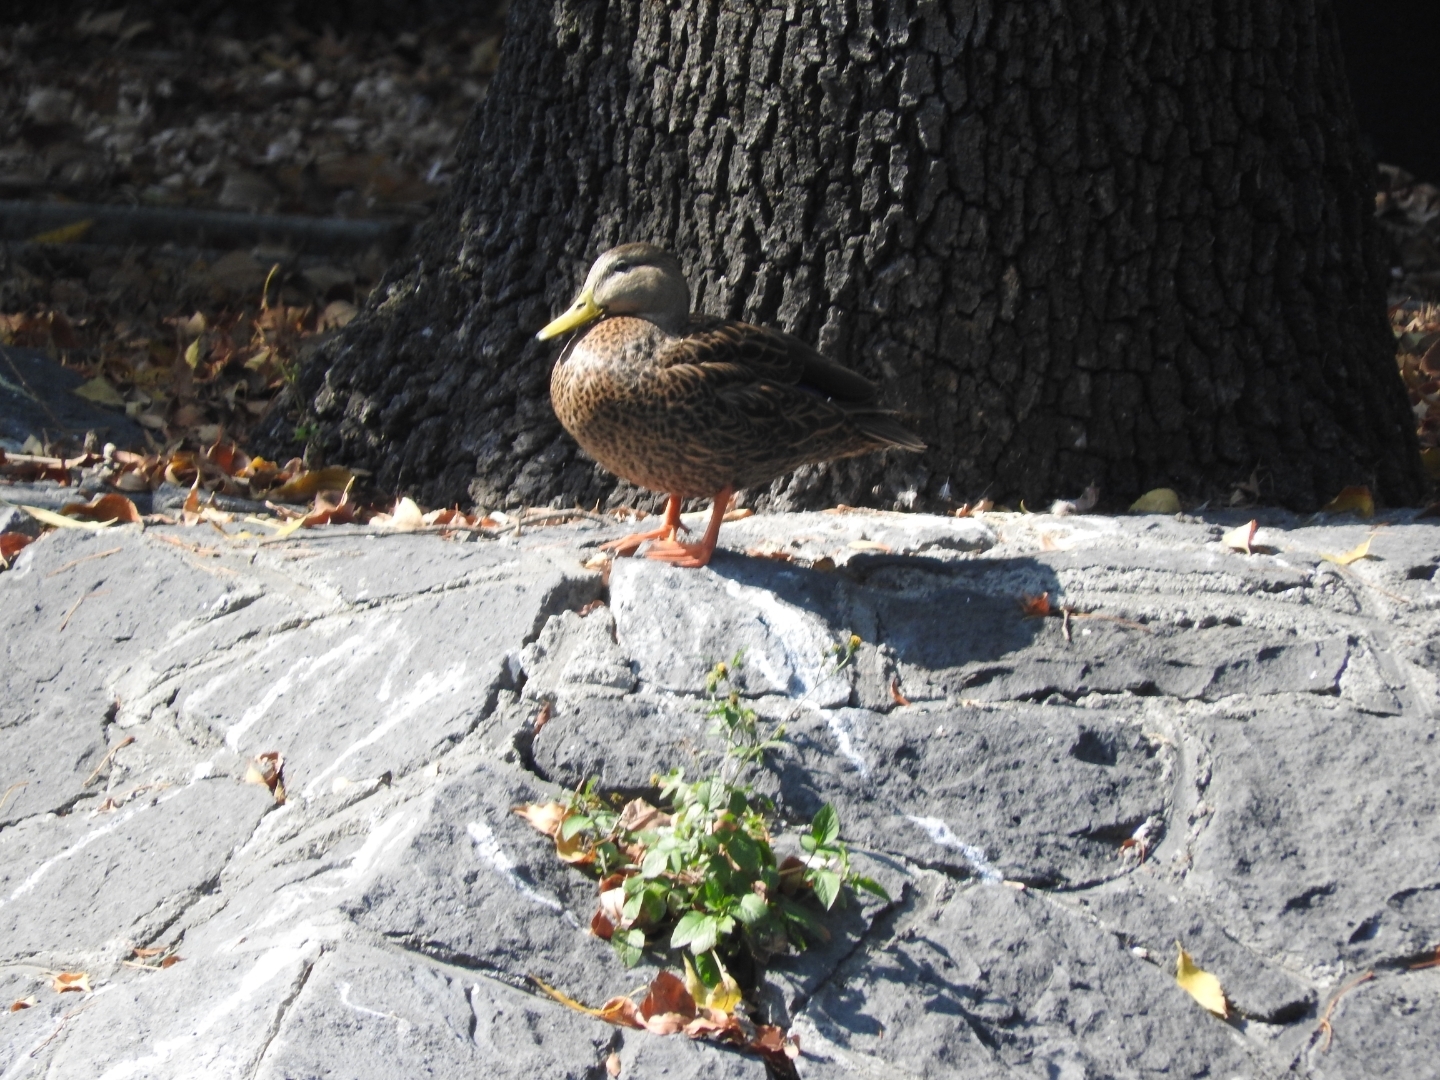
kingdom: Animalia
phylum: Chordata
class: Aves
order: Anseriformes
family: Anatidae
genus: Anas
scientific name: Anas diazi
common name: Mexican duck
